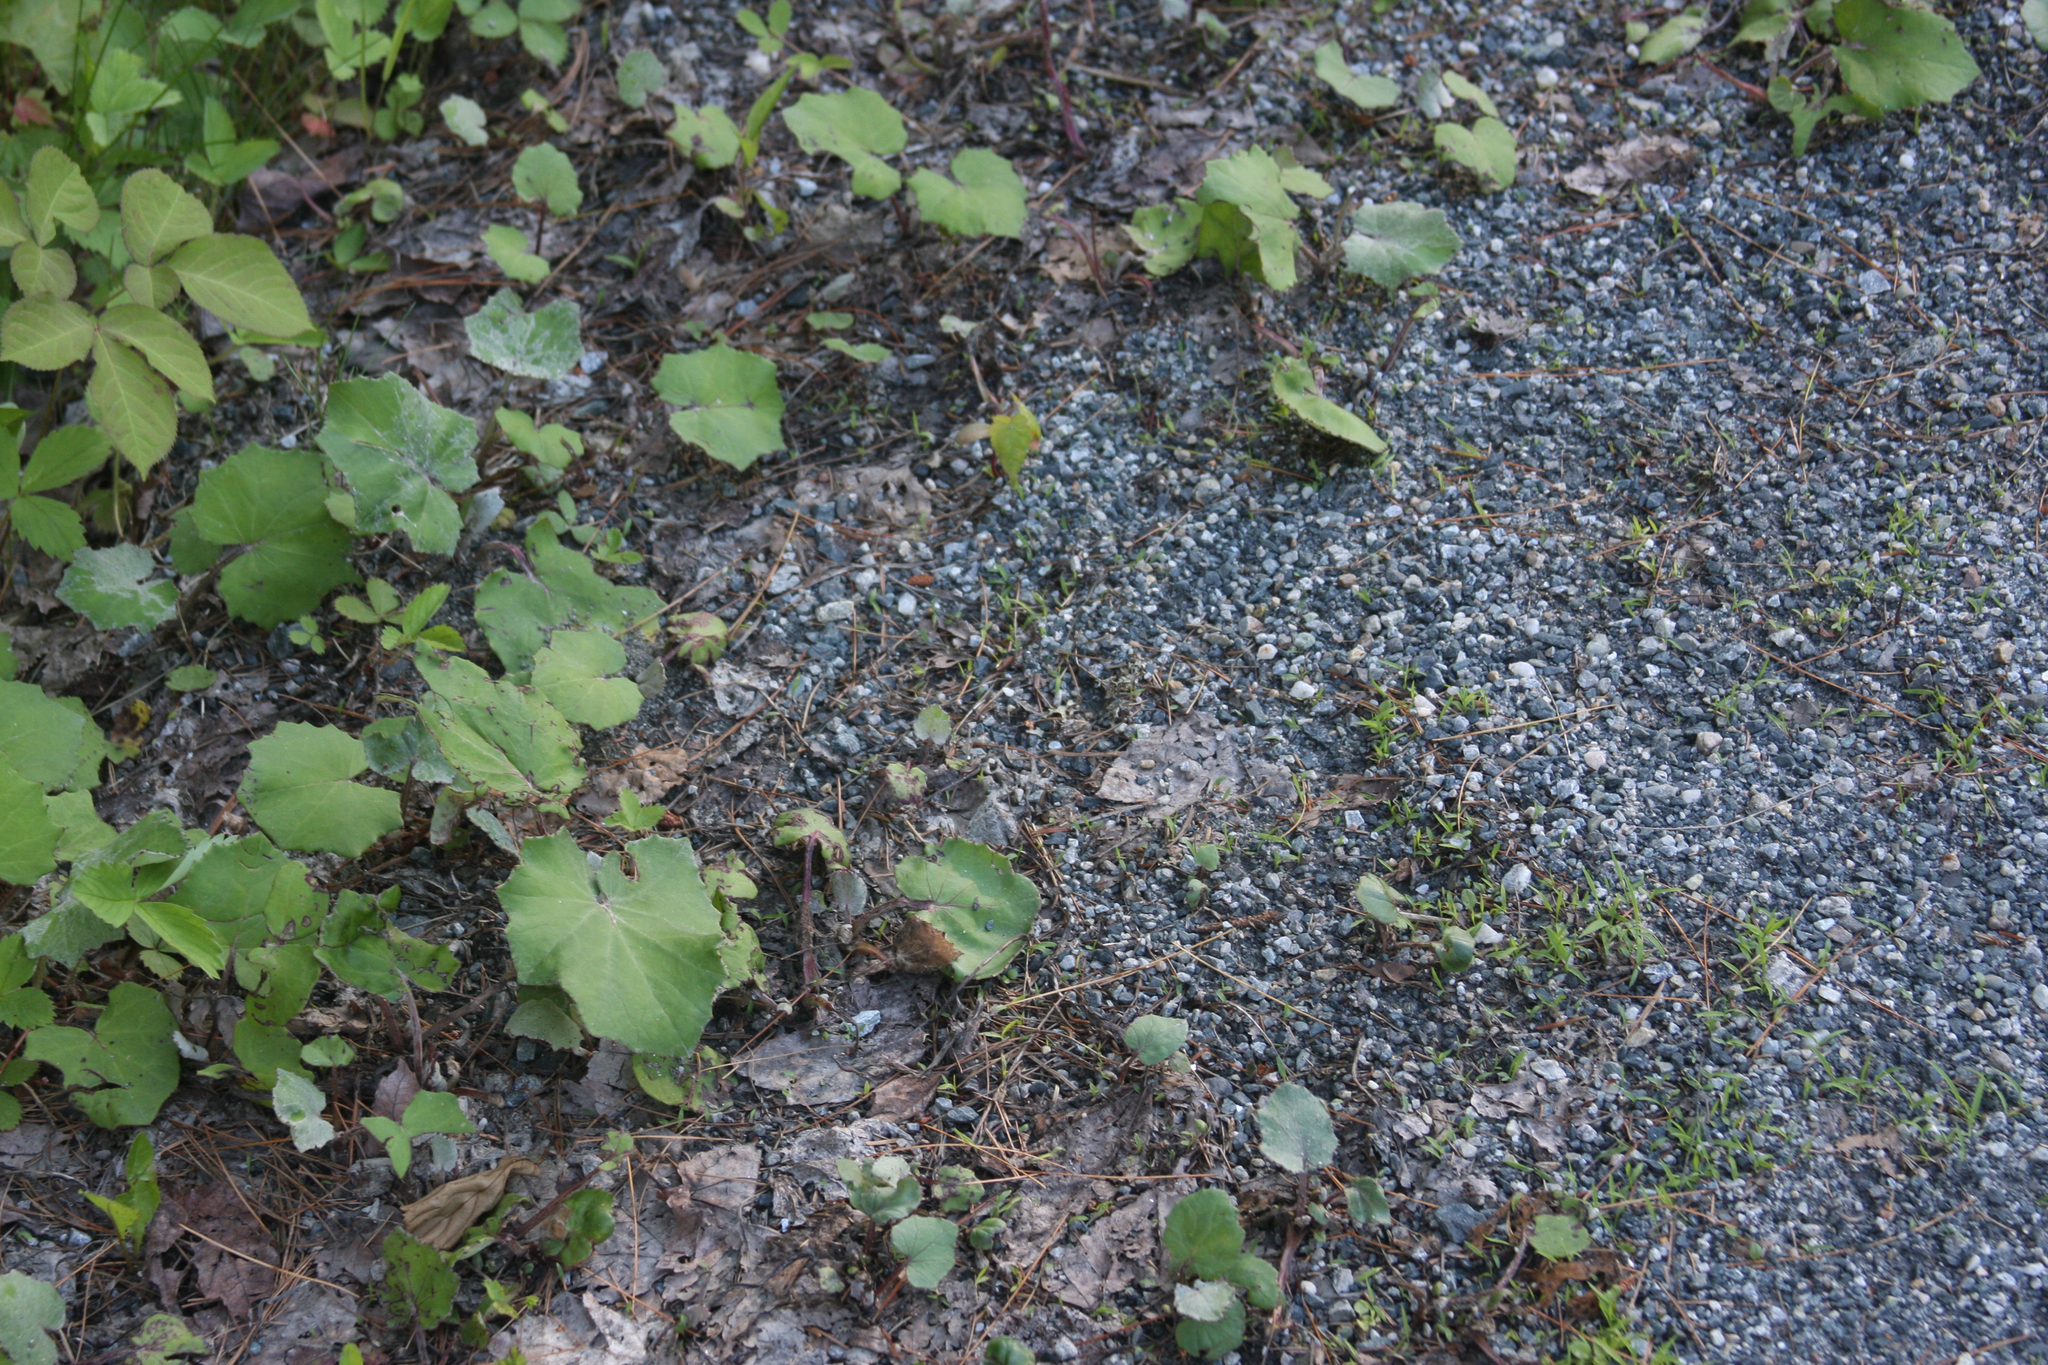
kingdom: Plantae
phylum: Tracheophyta
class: Magnoliopsida
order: Asterales
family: Asteraceae
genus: Tussilago
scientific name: Tussilago farfara
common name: Coltsfoot
